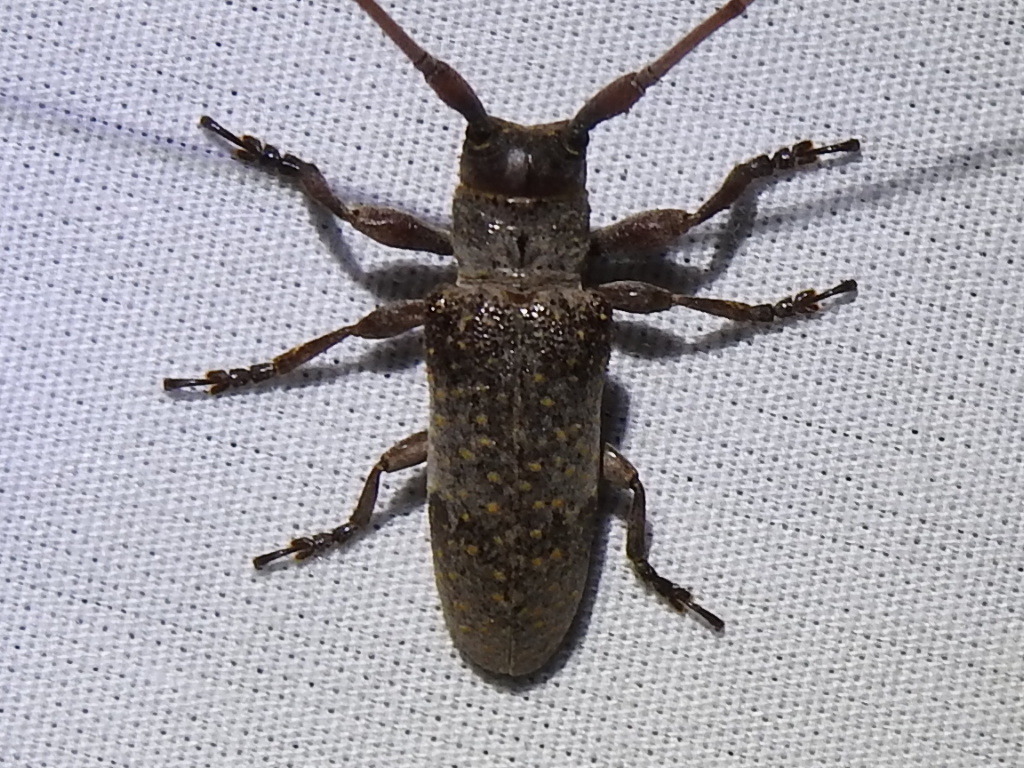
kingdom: Animalia
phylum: Arthropoda
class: Insecta
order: Coleoptera
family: Cerambycidae
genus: Oncideres
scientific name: Oncideres cingulata
